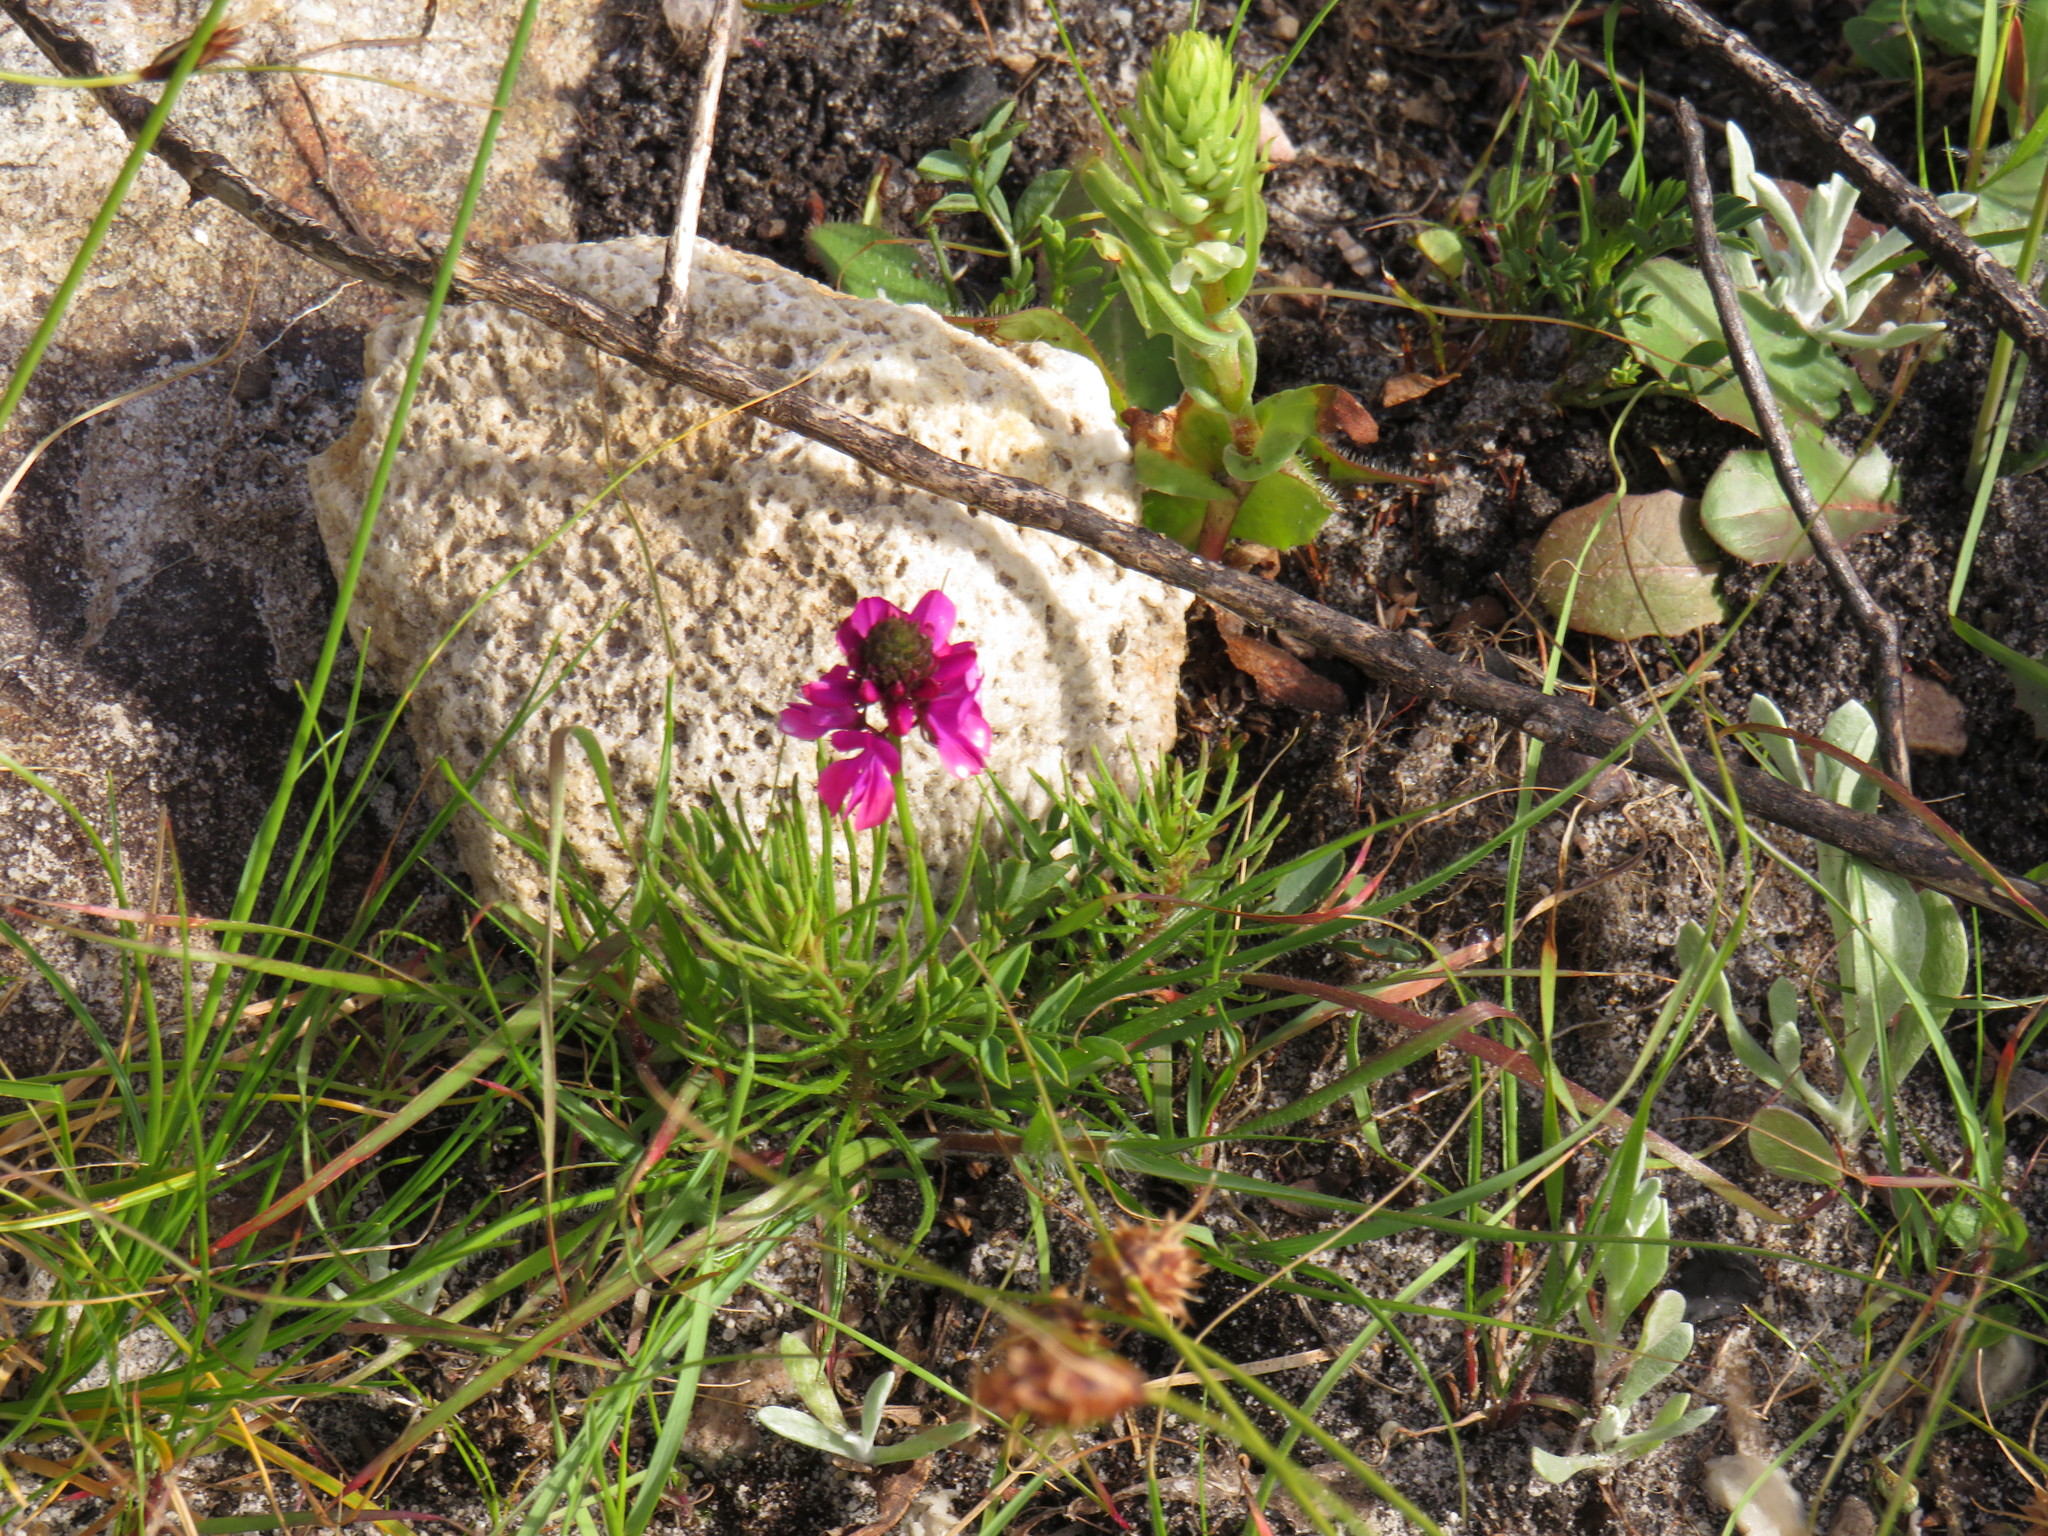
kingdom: Plantae
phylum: Tracheophyta
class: Magnoliopsida
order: Fabales
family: Fabaceae
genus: Indigofera
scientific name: Indigofera capillaris
